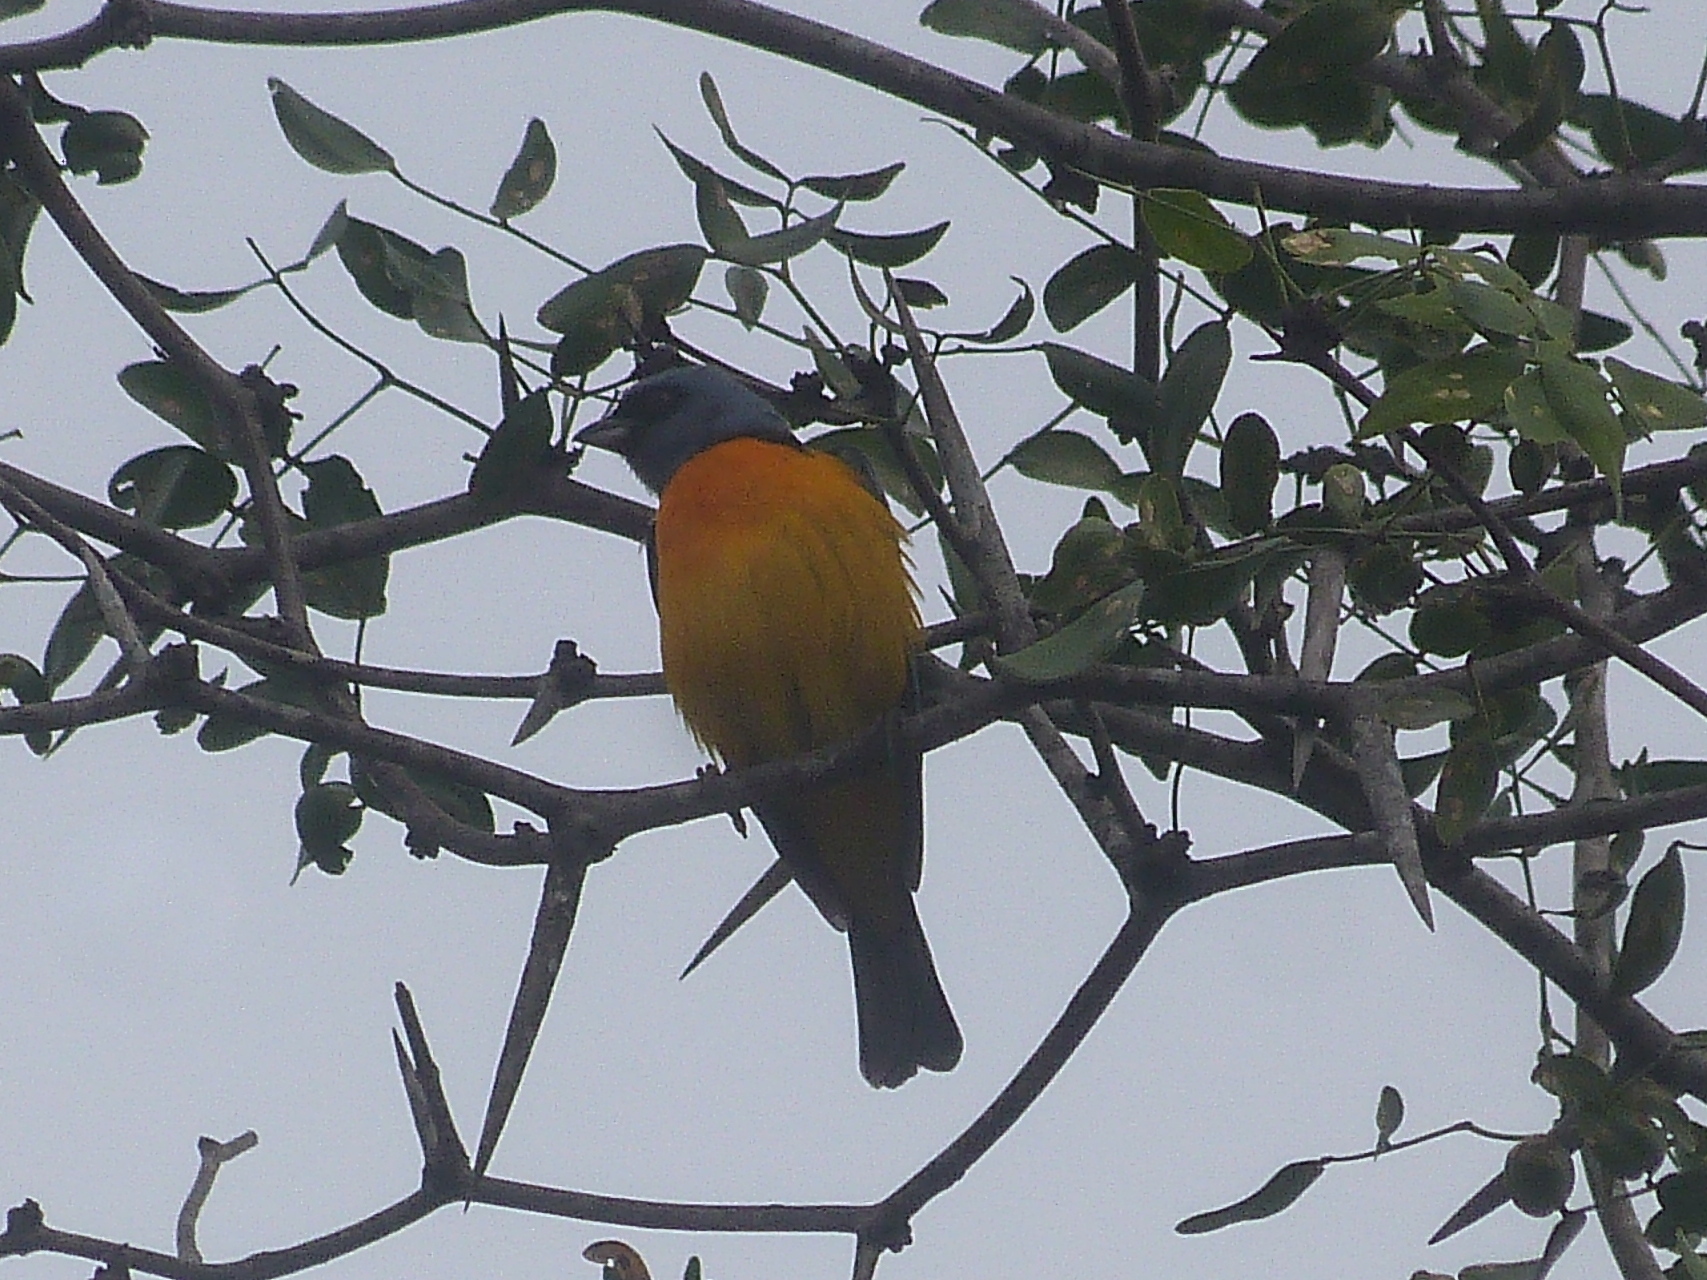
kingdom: Animalia
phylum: Chordata
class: Aves
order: Passeriformes
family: Thraupidae
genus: Rauenia
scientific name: Rauenia bonariensis
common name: Blue-and-yellow tanager
